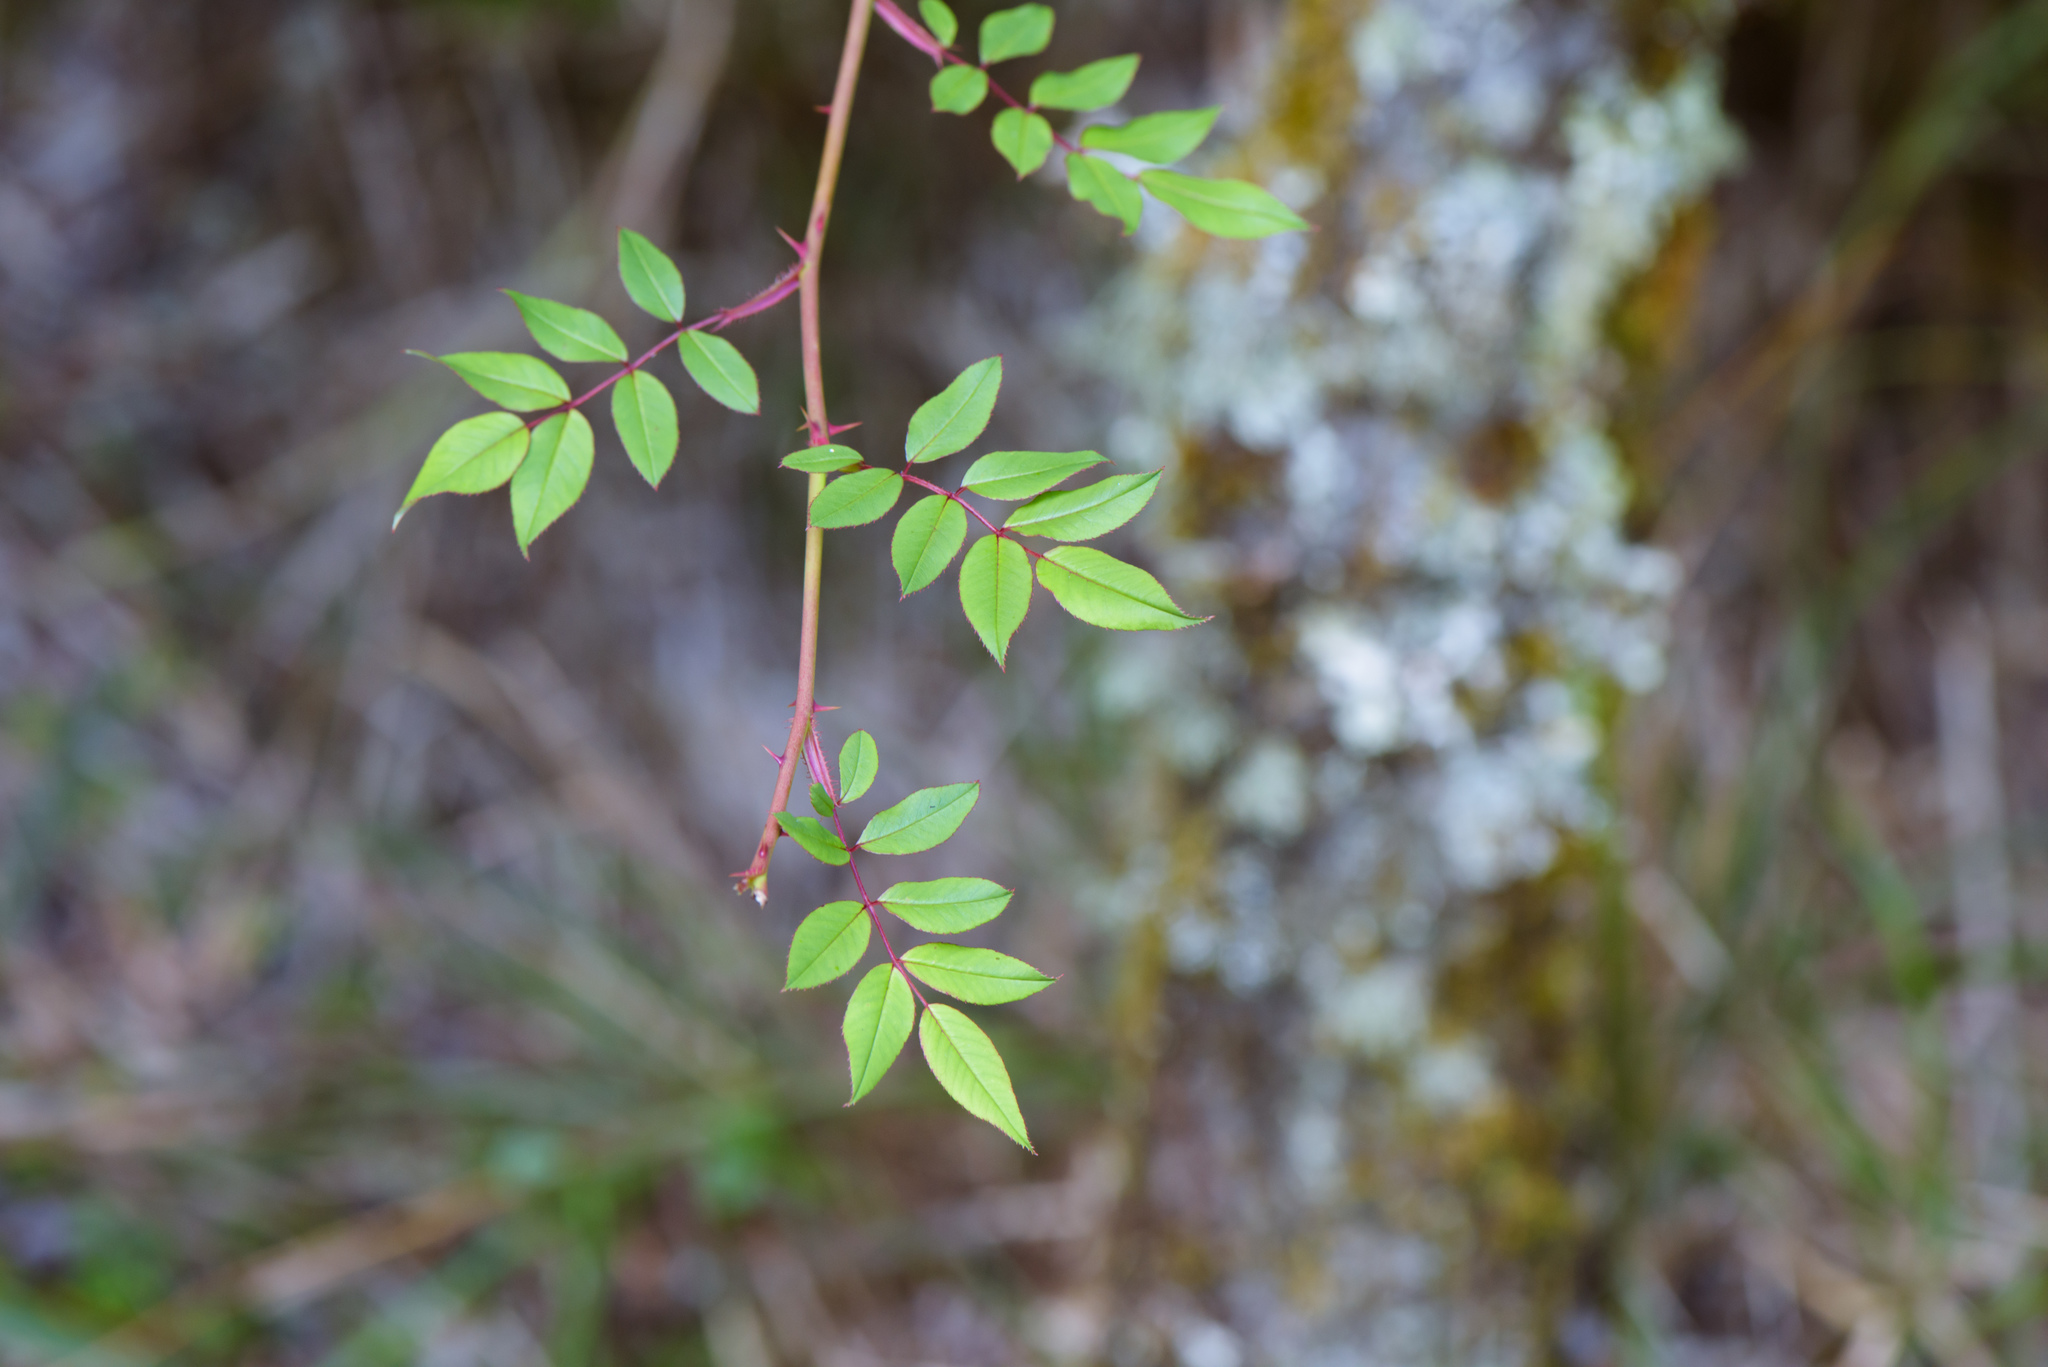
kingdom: Plantae
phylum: Tracheophyta
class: Magnoliopsida
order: Rosales
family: Rosaceae
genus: Rosa
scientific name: Rosa transmorrisonensis
